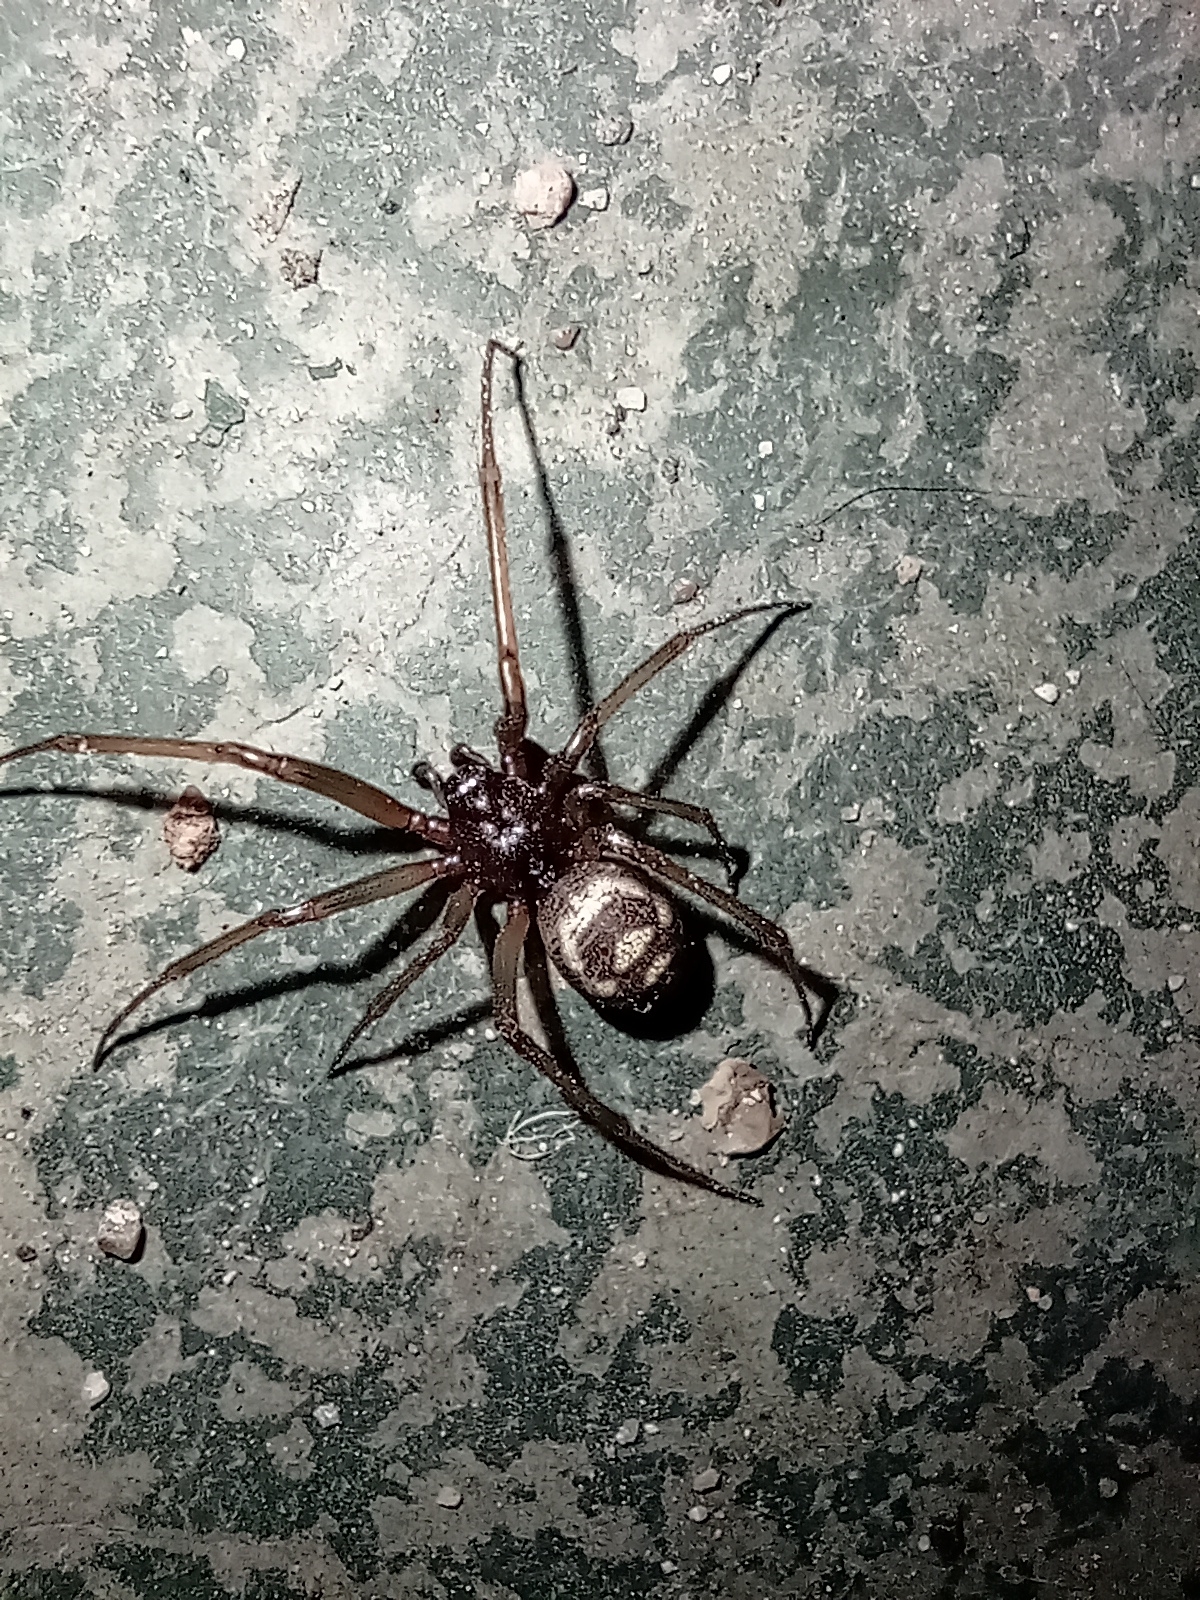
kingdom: Animalia
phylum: Arthropoda
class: Arachnida
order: Araneae
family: Theridiidae
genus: Steatoda
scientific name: Steatoda grossa
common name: False black widow
